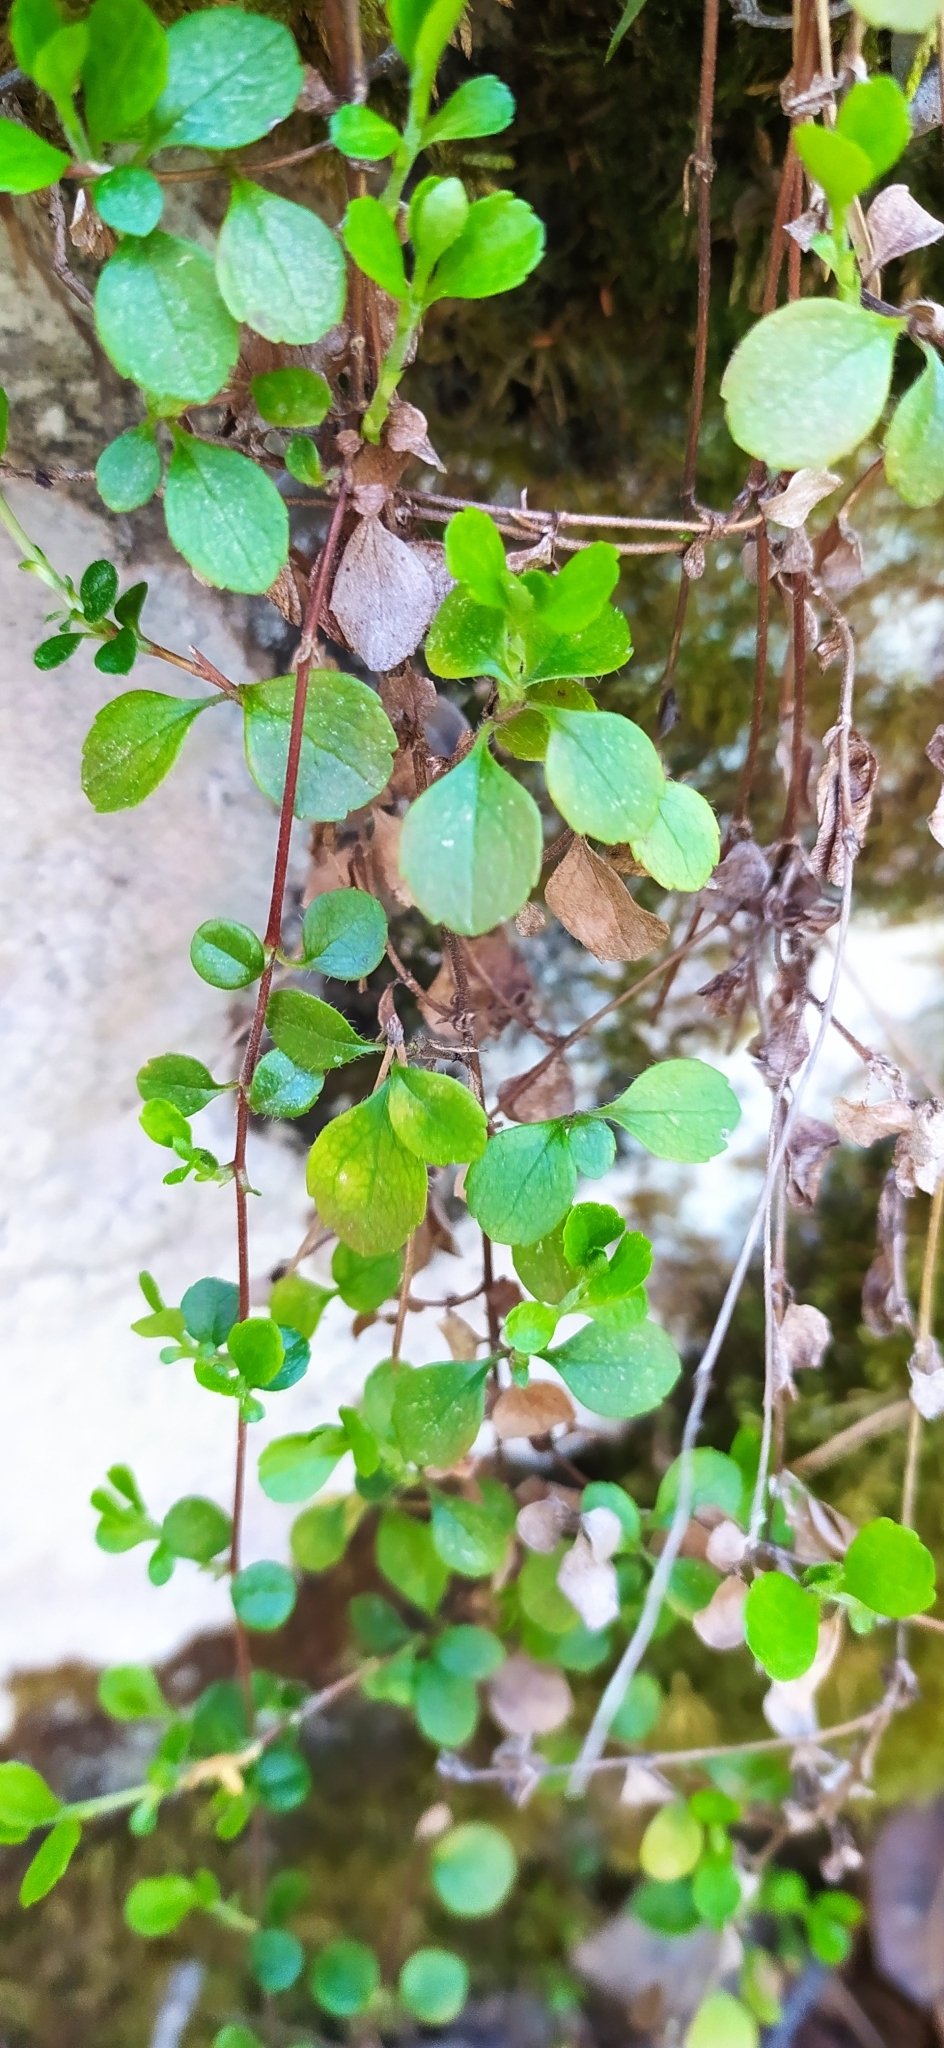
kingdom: Plantae
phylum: Tracheophyta
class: Magnoliopsida
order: Dipsacales
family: Caprifoliaceae
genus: Linnaea
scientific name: Linnaea borealis
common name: Twinflower
